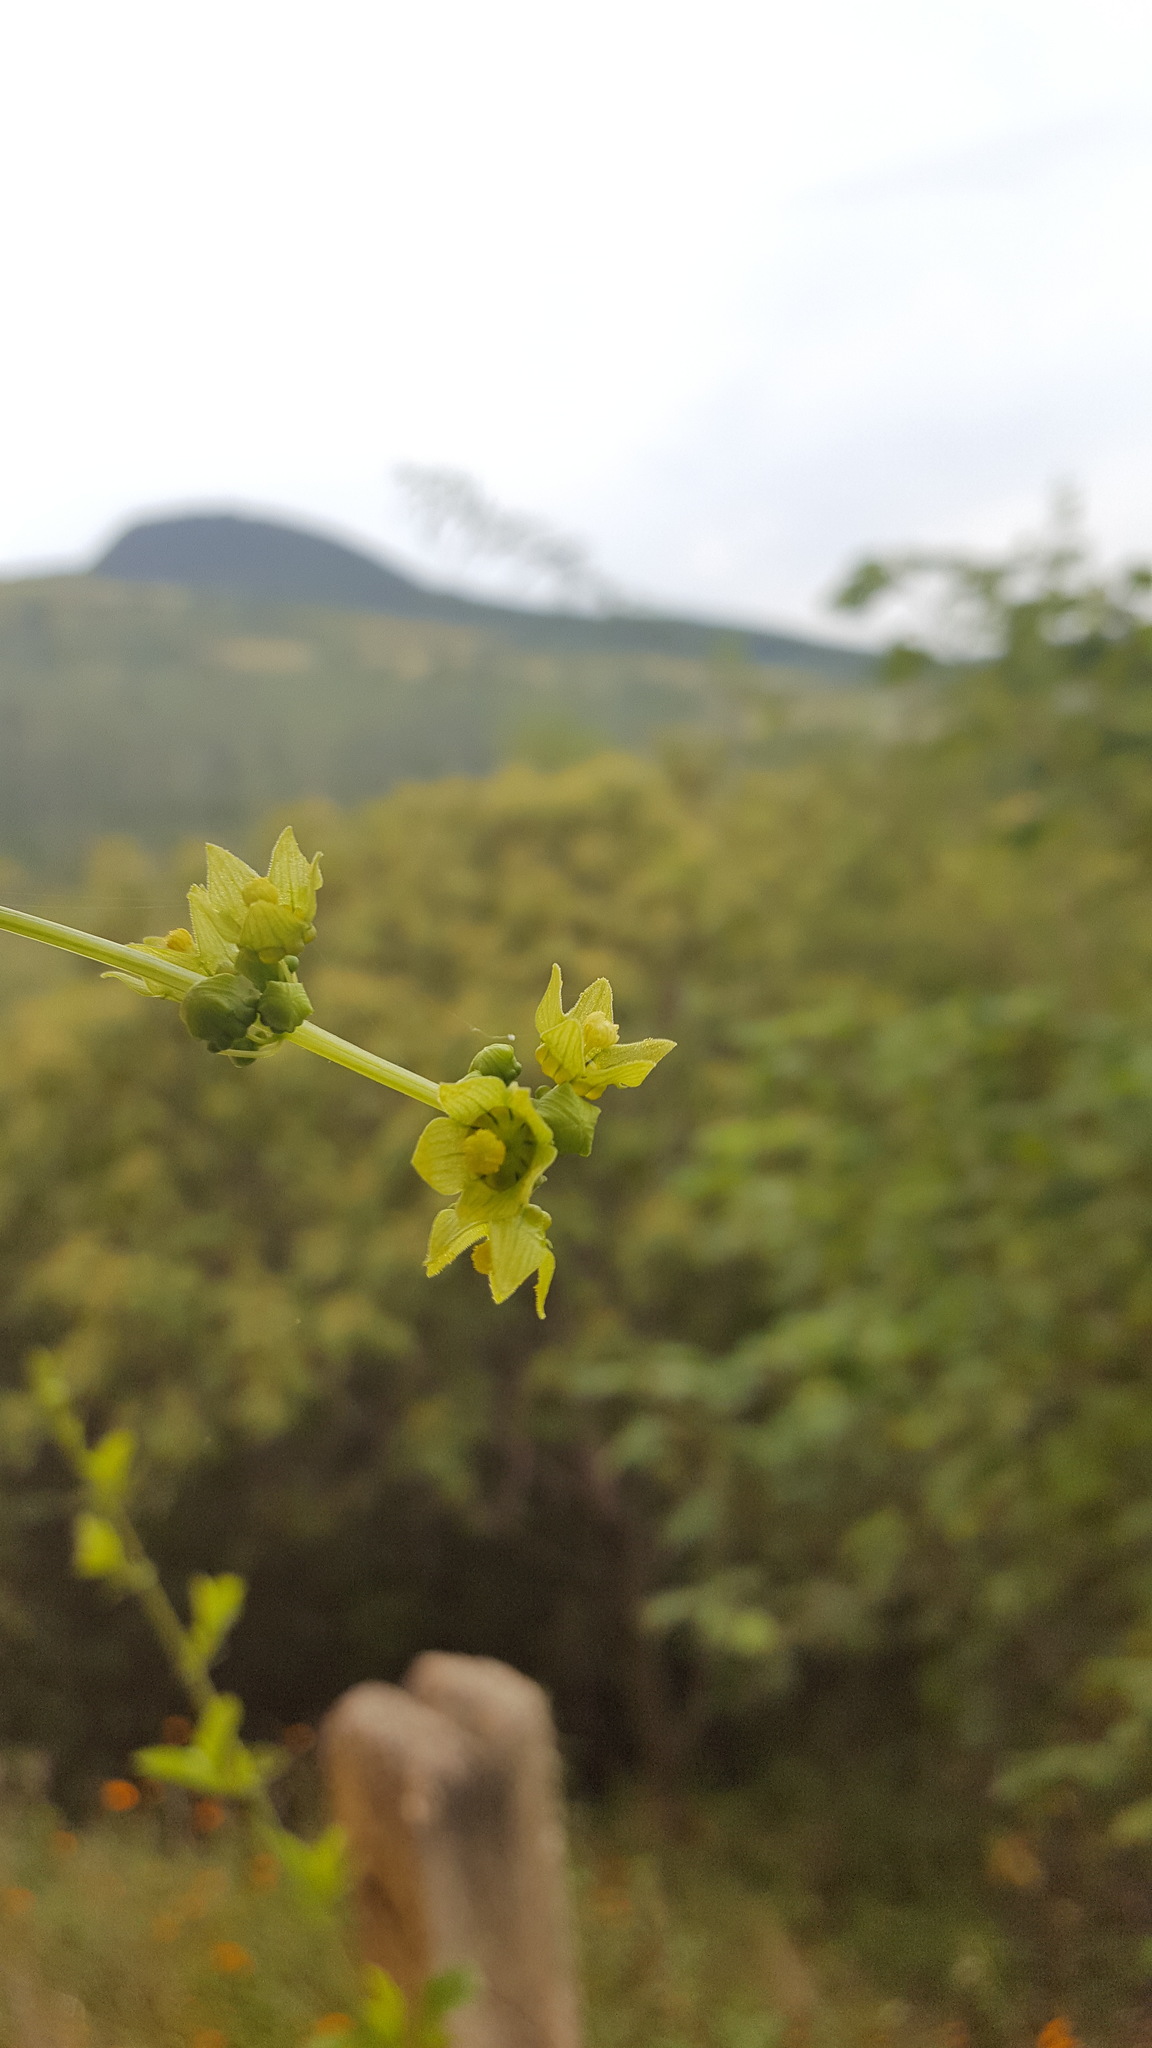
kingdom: Plantae
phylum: Tracheophyta
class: Magnoliopsida
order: Cucurbitales
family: Cucurbitaceae
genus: Sechiopsis
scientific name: Sechiopsis triquetra
